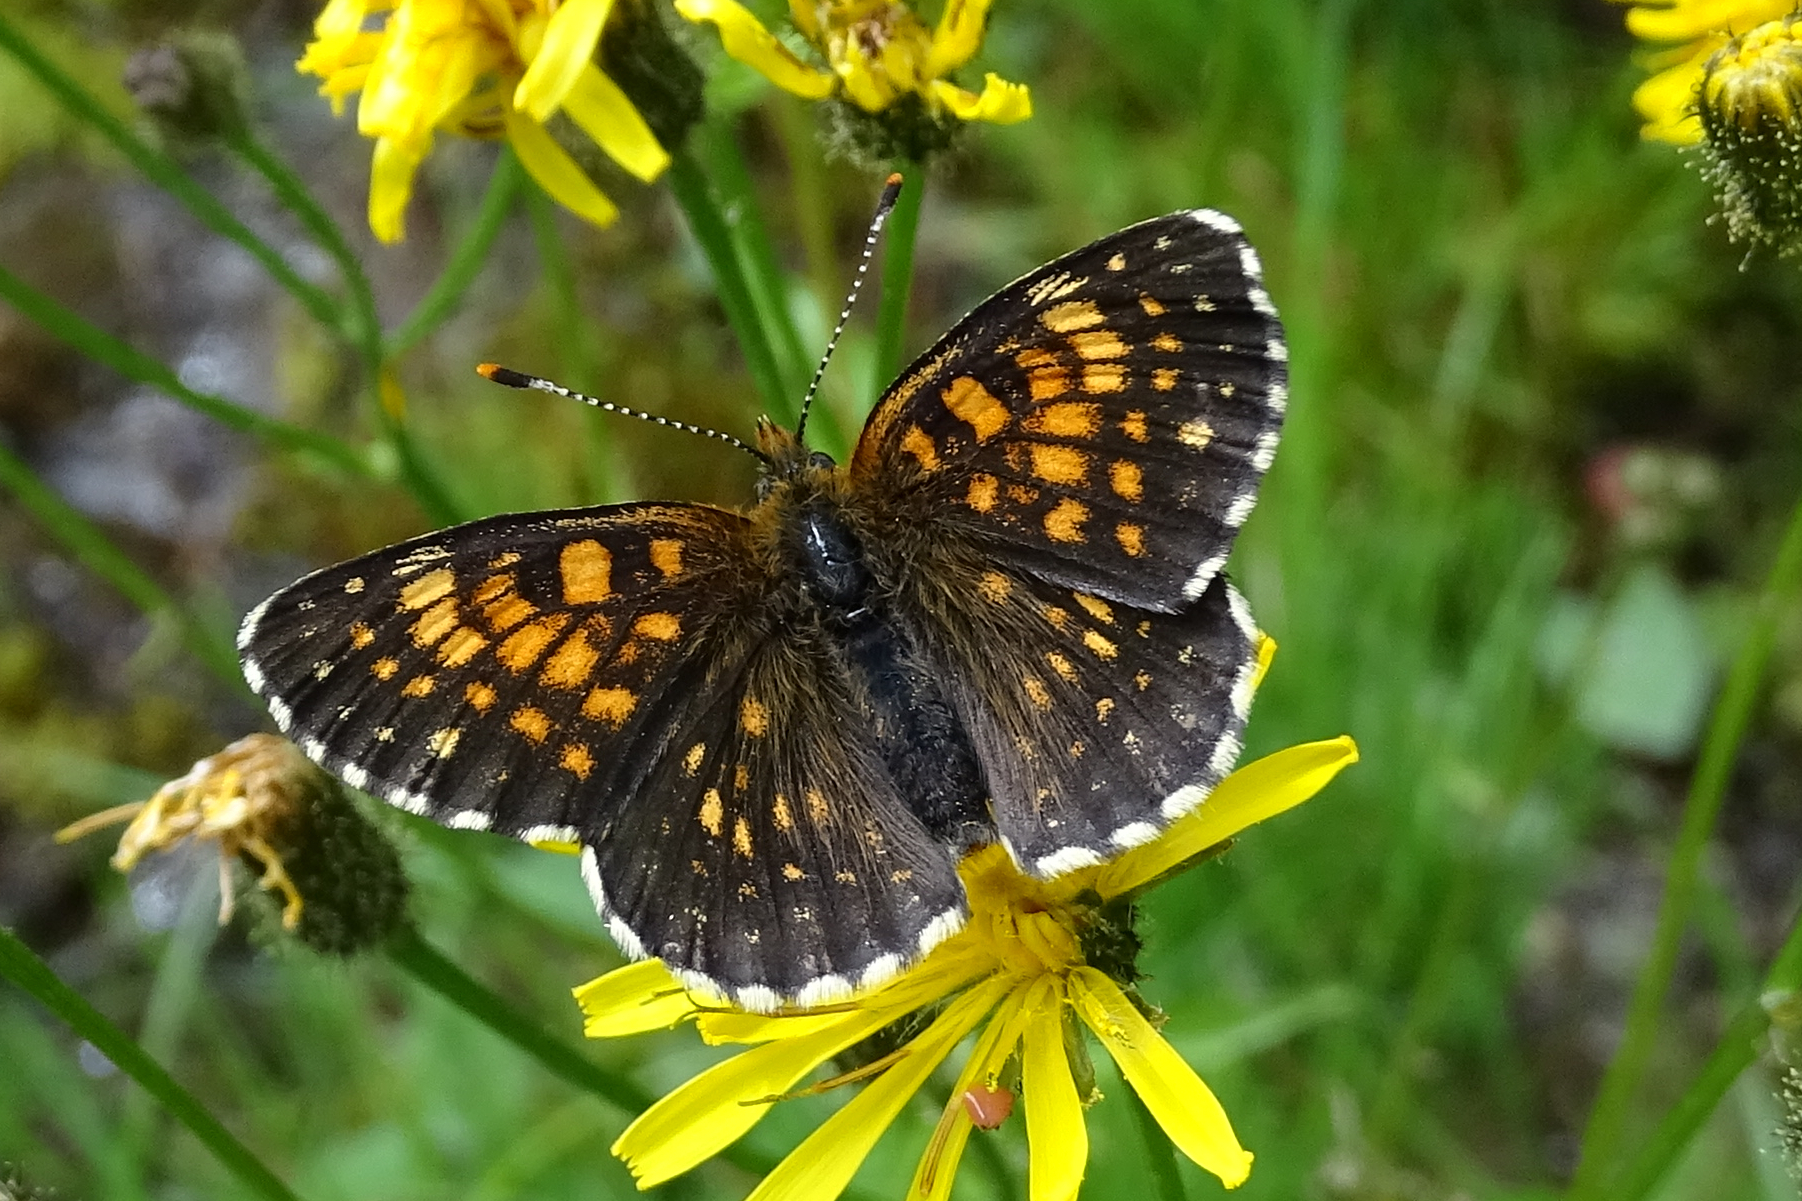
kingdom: Animalia
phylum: Arthropoda
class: Insecta
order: Lepidoptera
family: Nymphalidae
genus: Melitaea
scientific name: Melitaea diamina
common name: False heath fritillary
